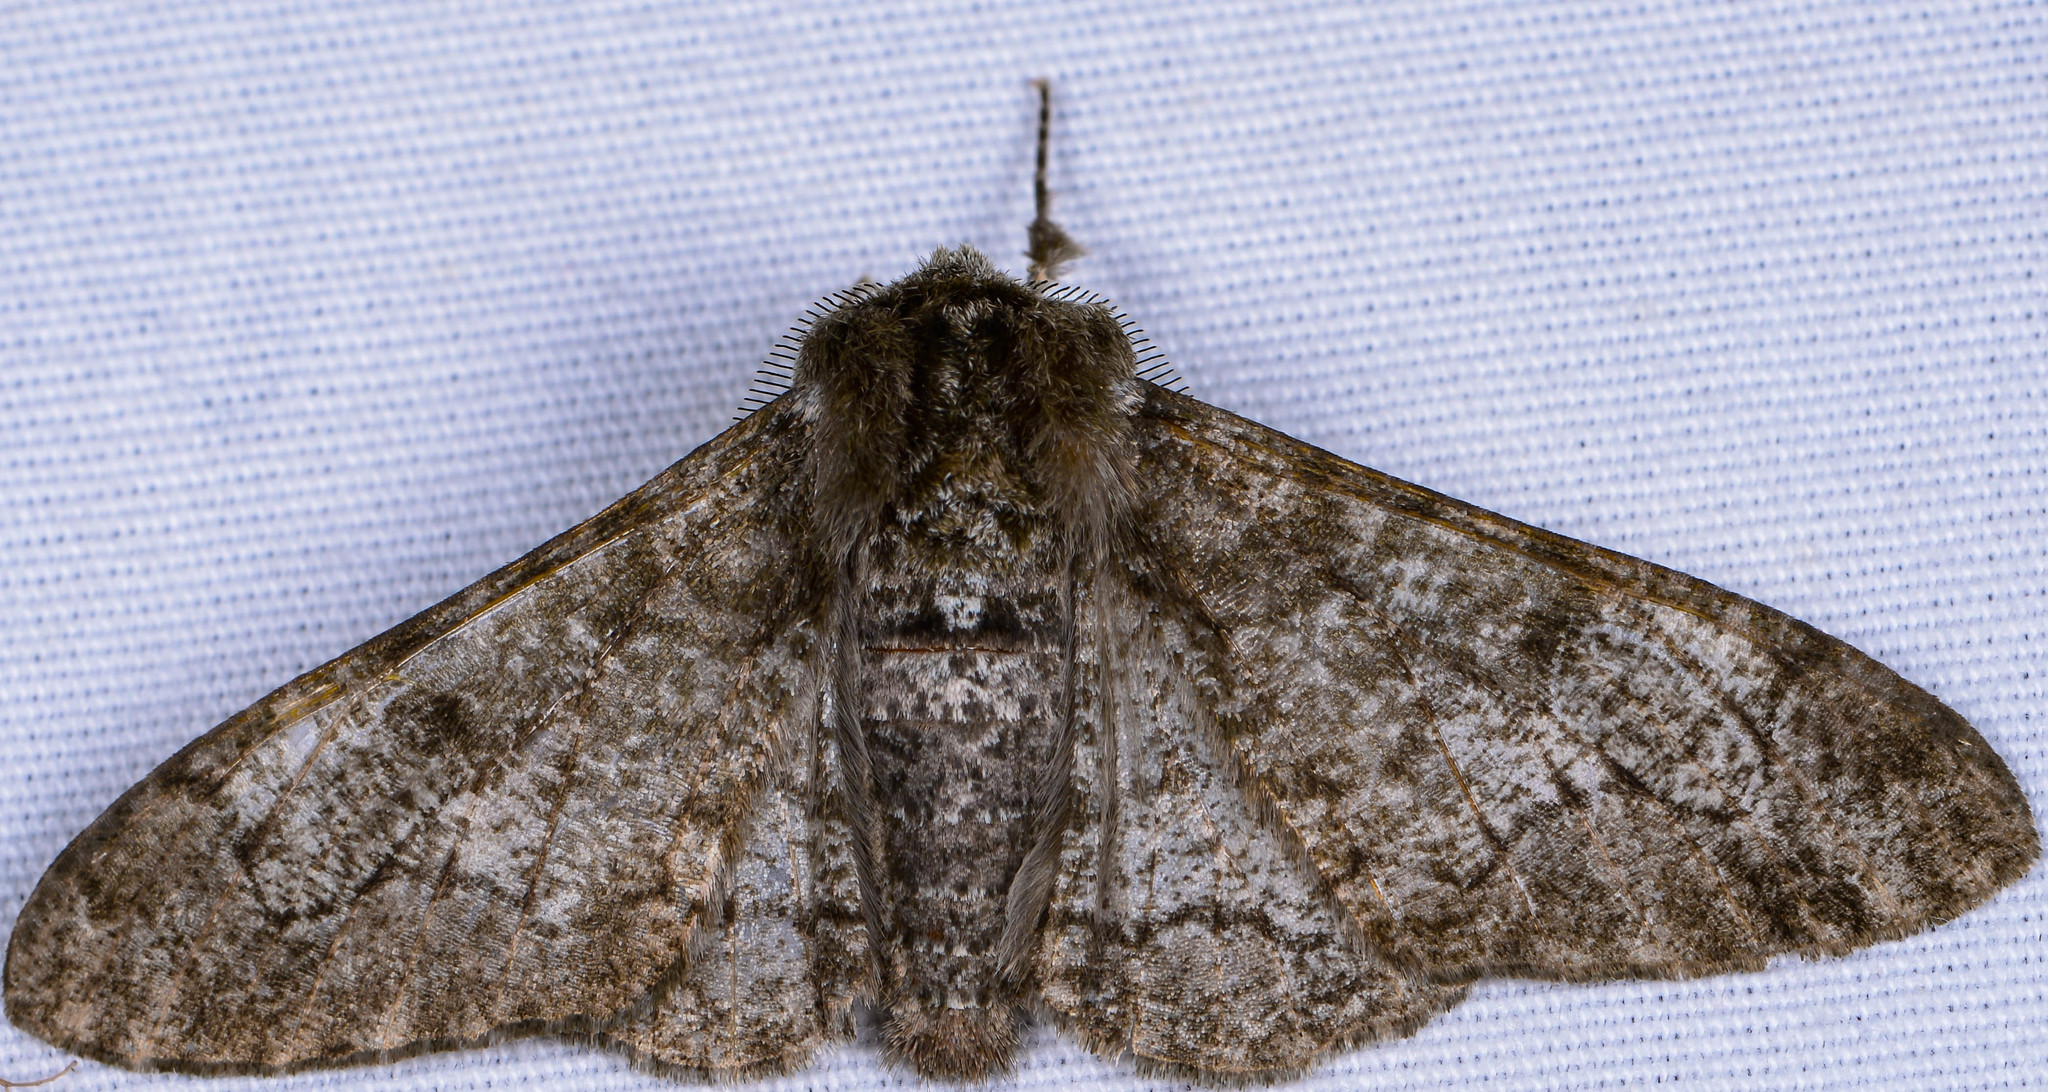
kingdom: Animalia
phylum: Arthropoda
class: Insecta
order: Lepidoptera
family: Geometridae
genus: Biston
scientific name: Biston betularia
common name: Peppered moth
